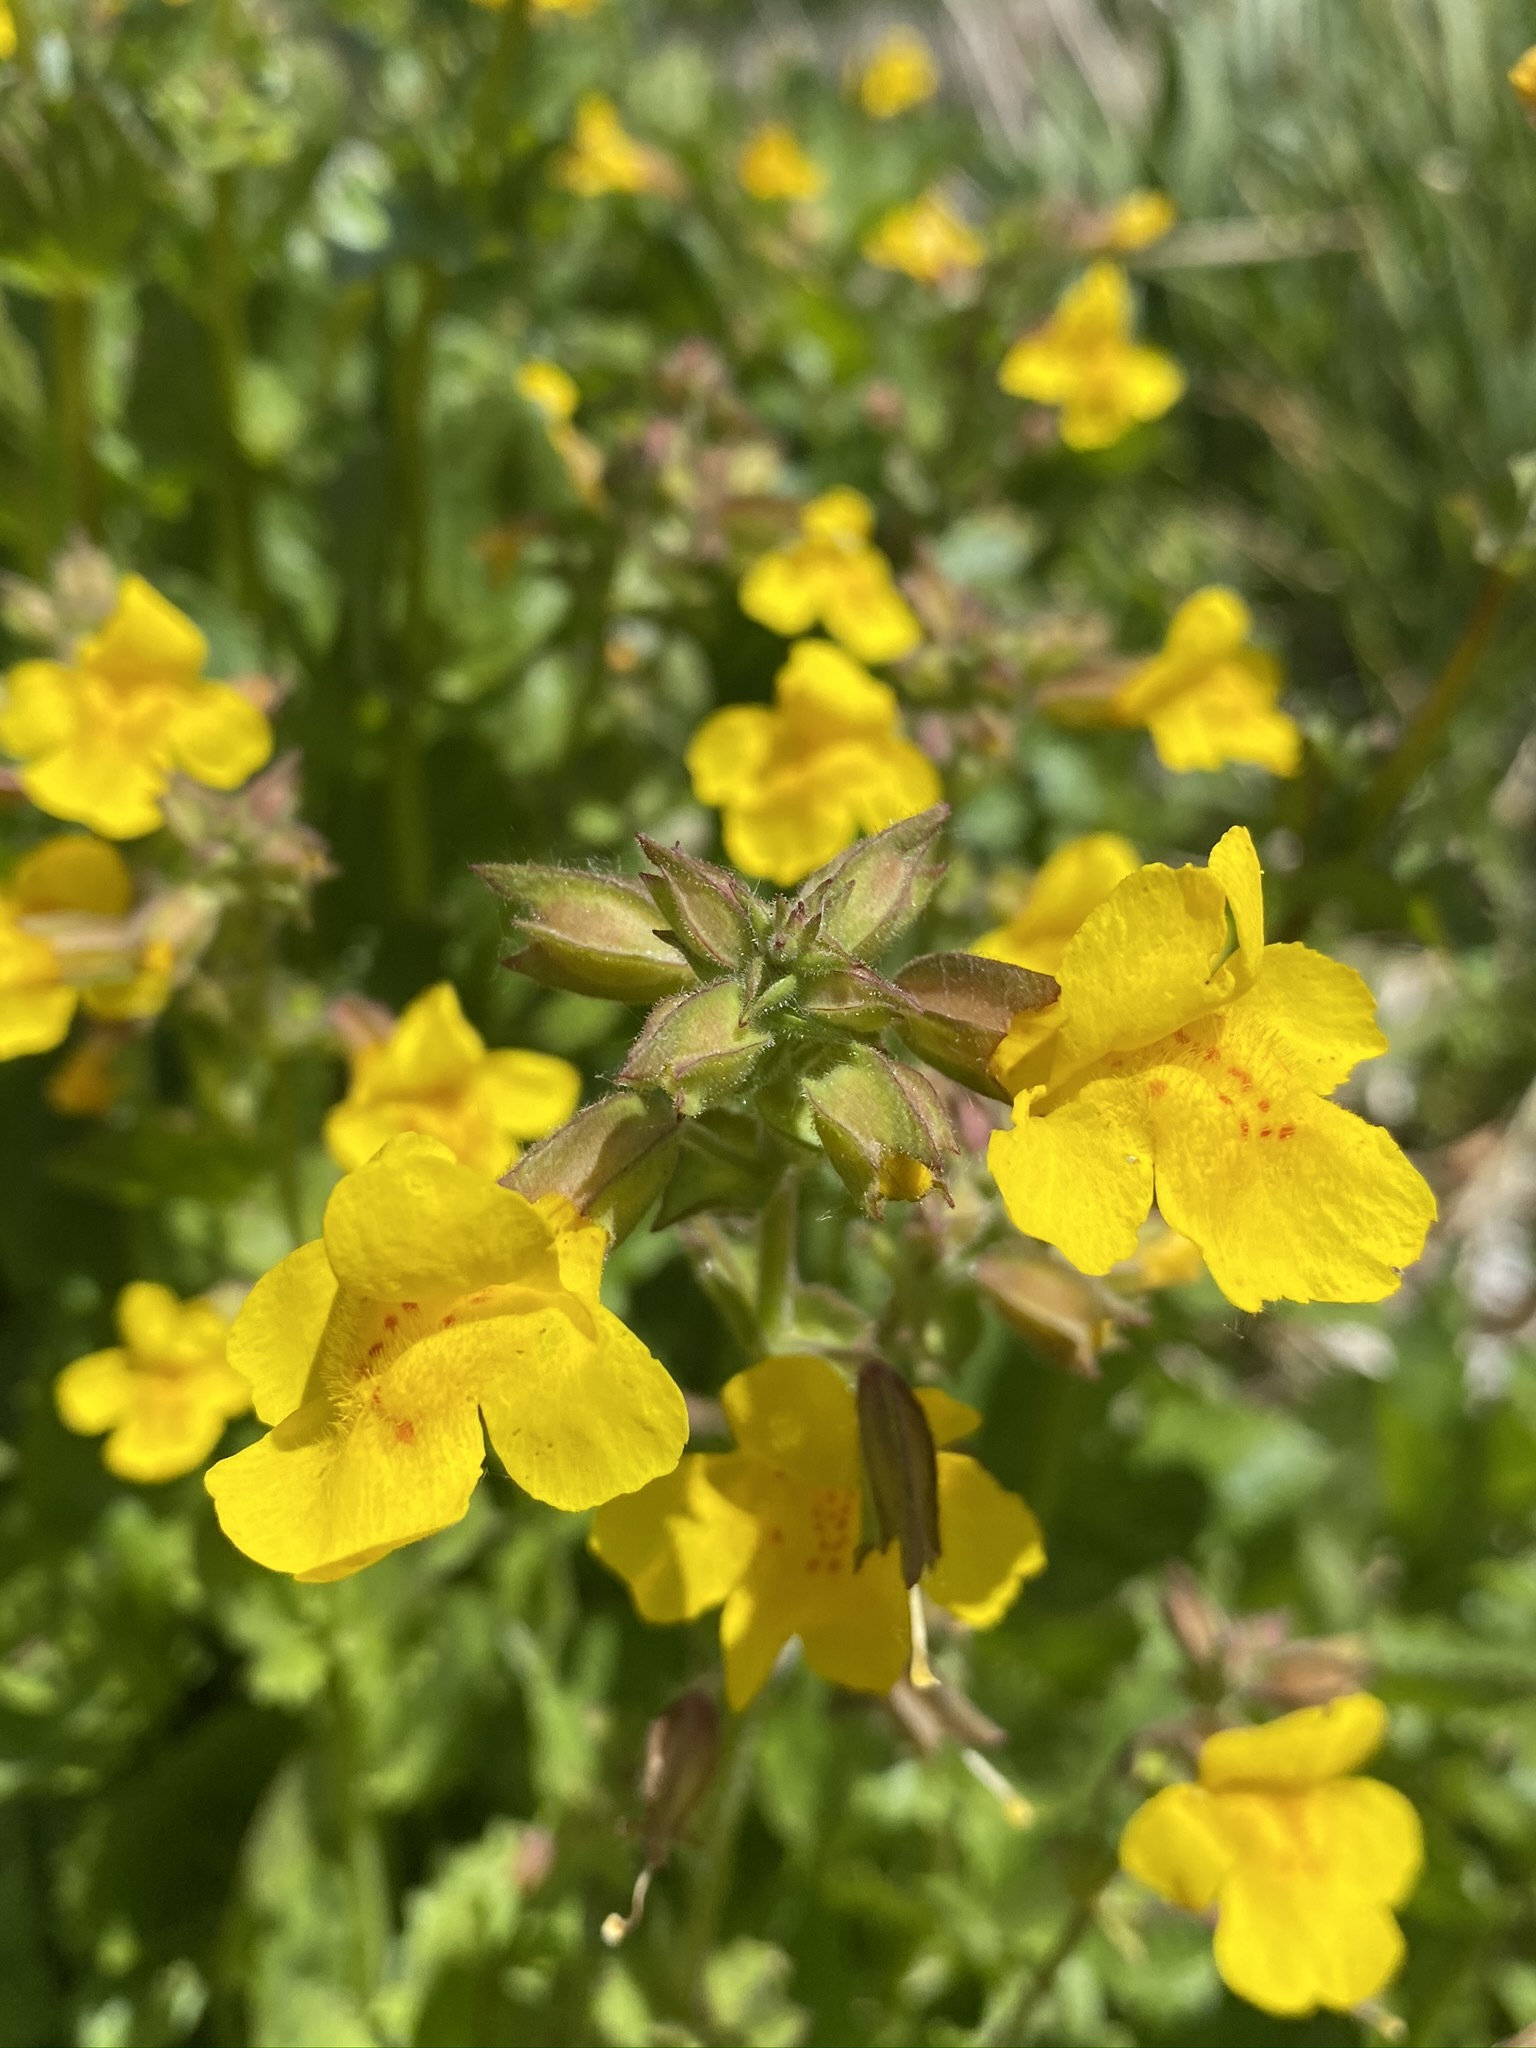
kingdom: Plantae
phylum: Tracheophyta
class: Magnoliopsida
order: Lamiales
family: Phrymaceae
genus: Erythranthe
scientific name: Erythranthe guttata
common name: Monkeyflower
